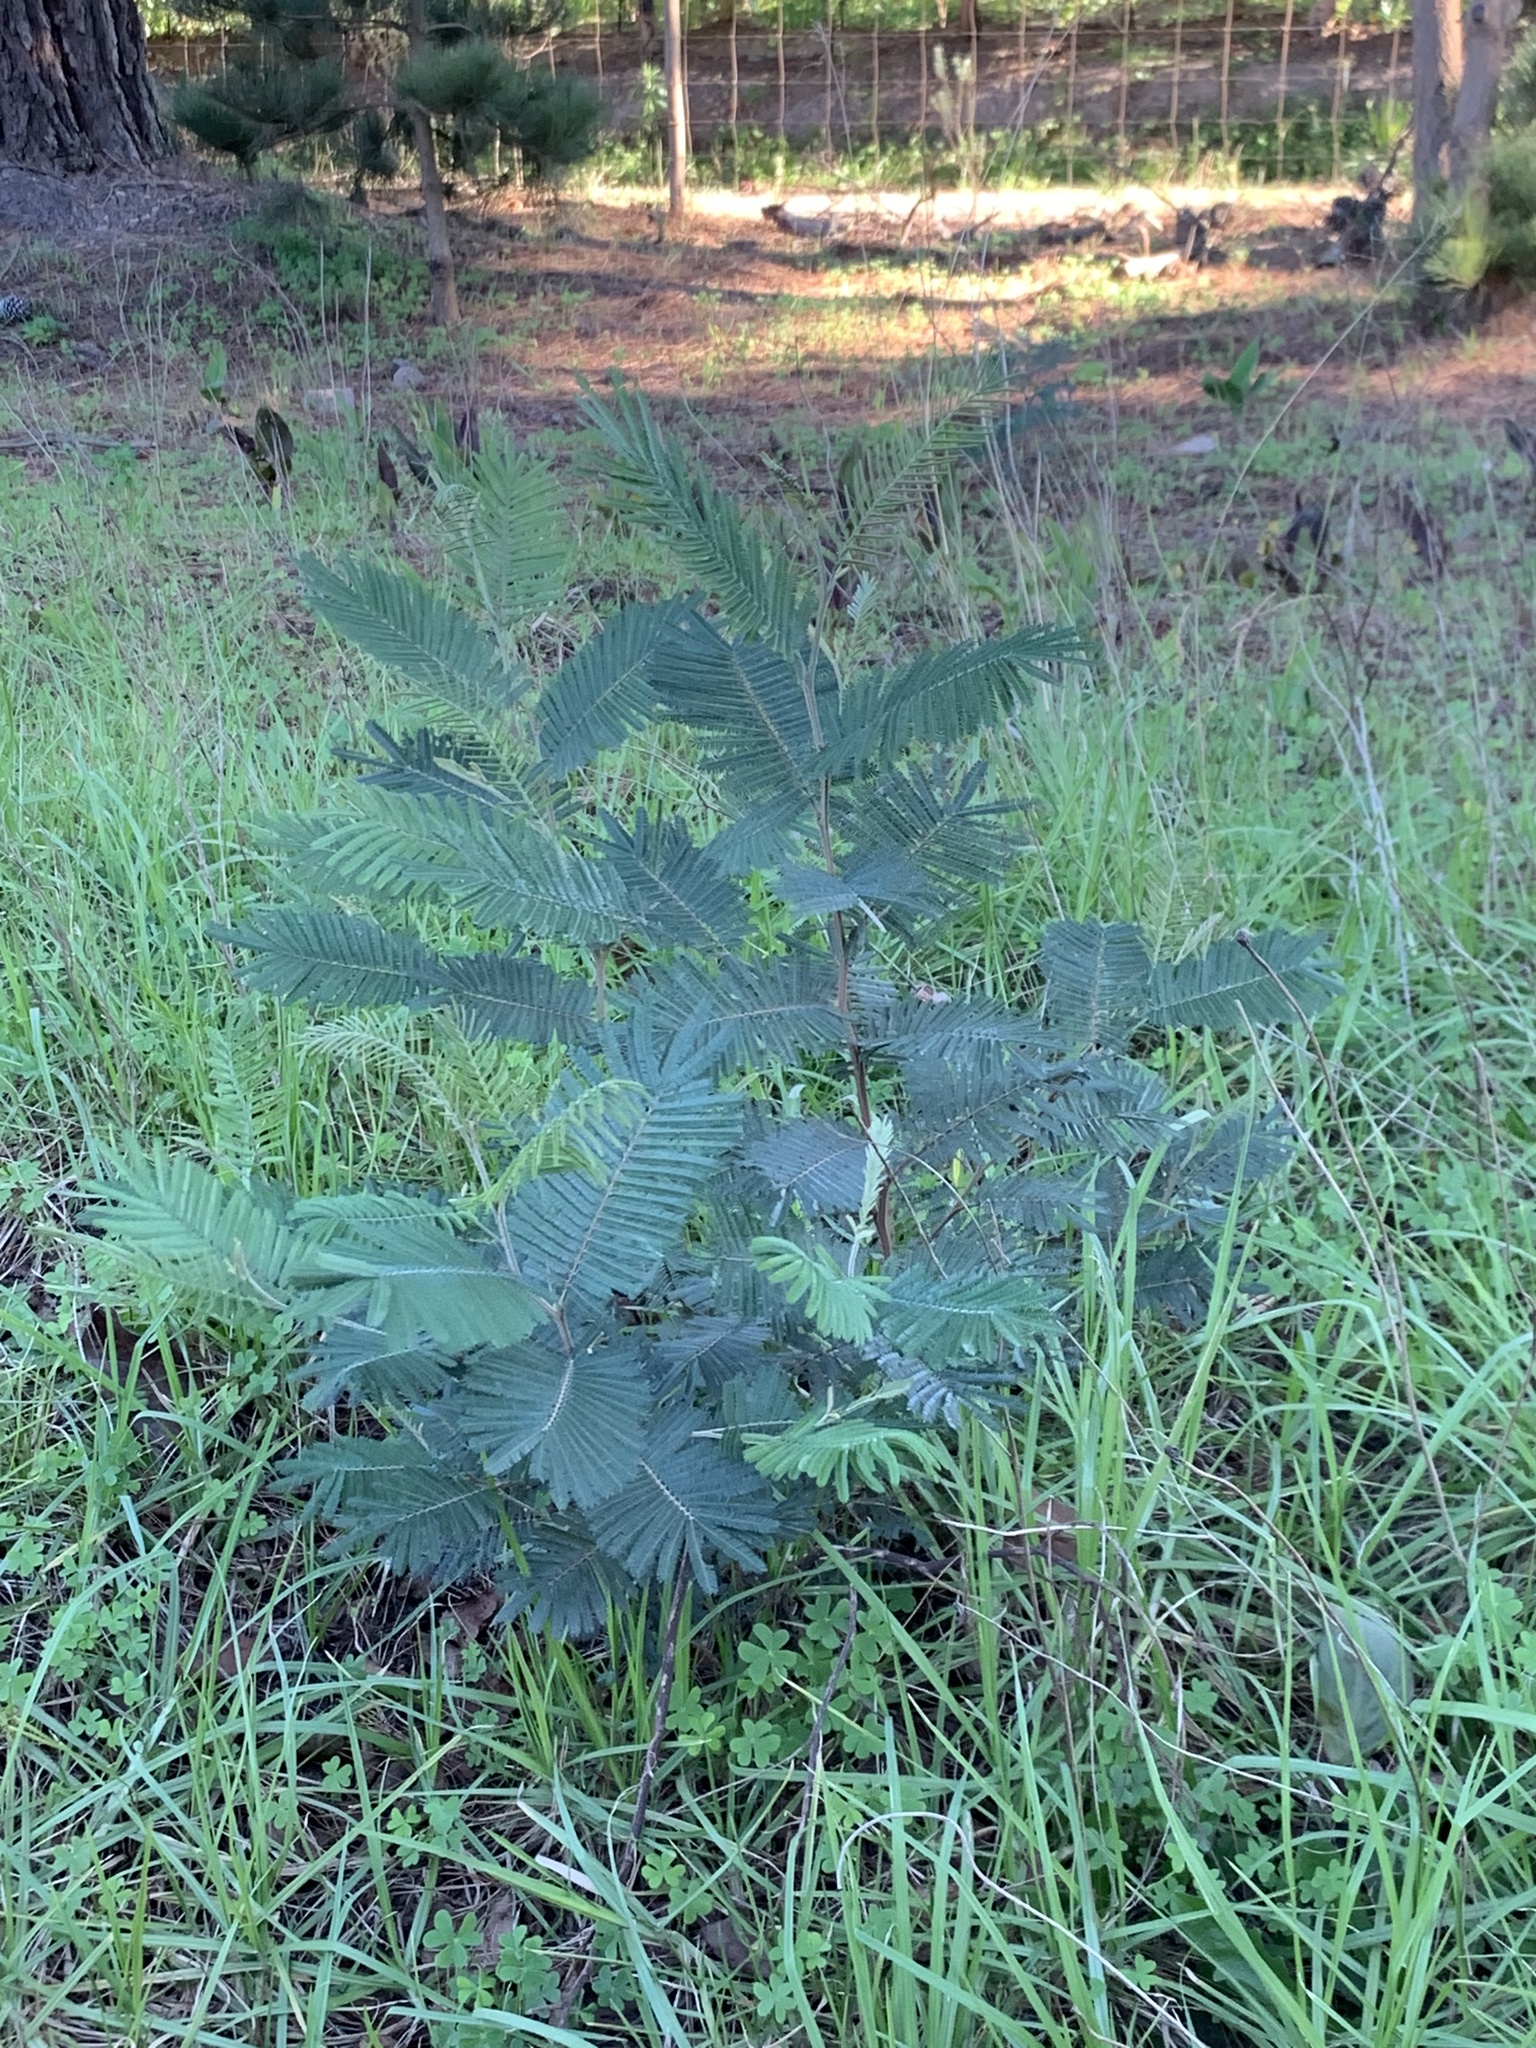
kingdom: Plantae
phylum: Tracheophyta
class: Magnoliopsida
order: Fabales
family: Fabaceae
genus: Acacia
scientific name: Acacia mearnsii
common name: Black wattle
